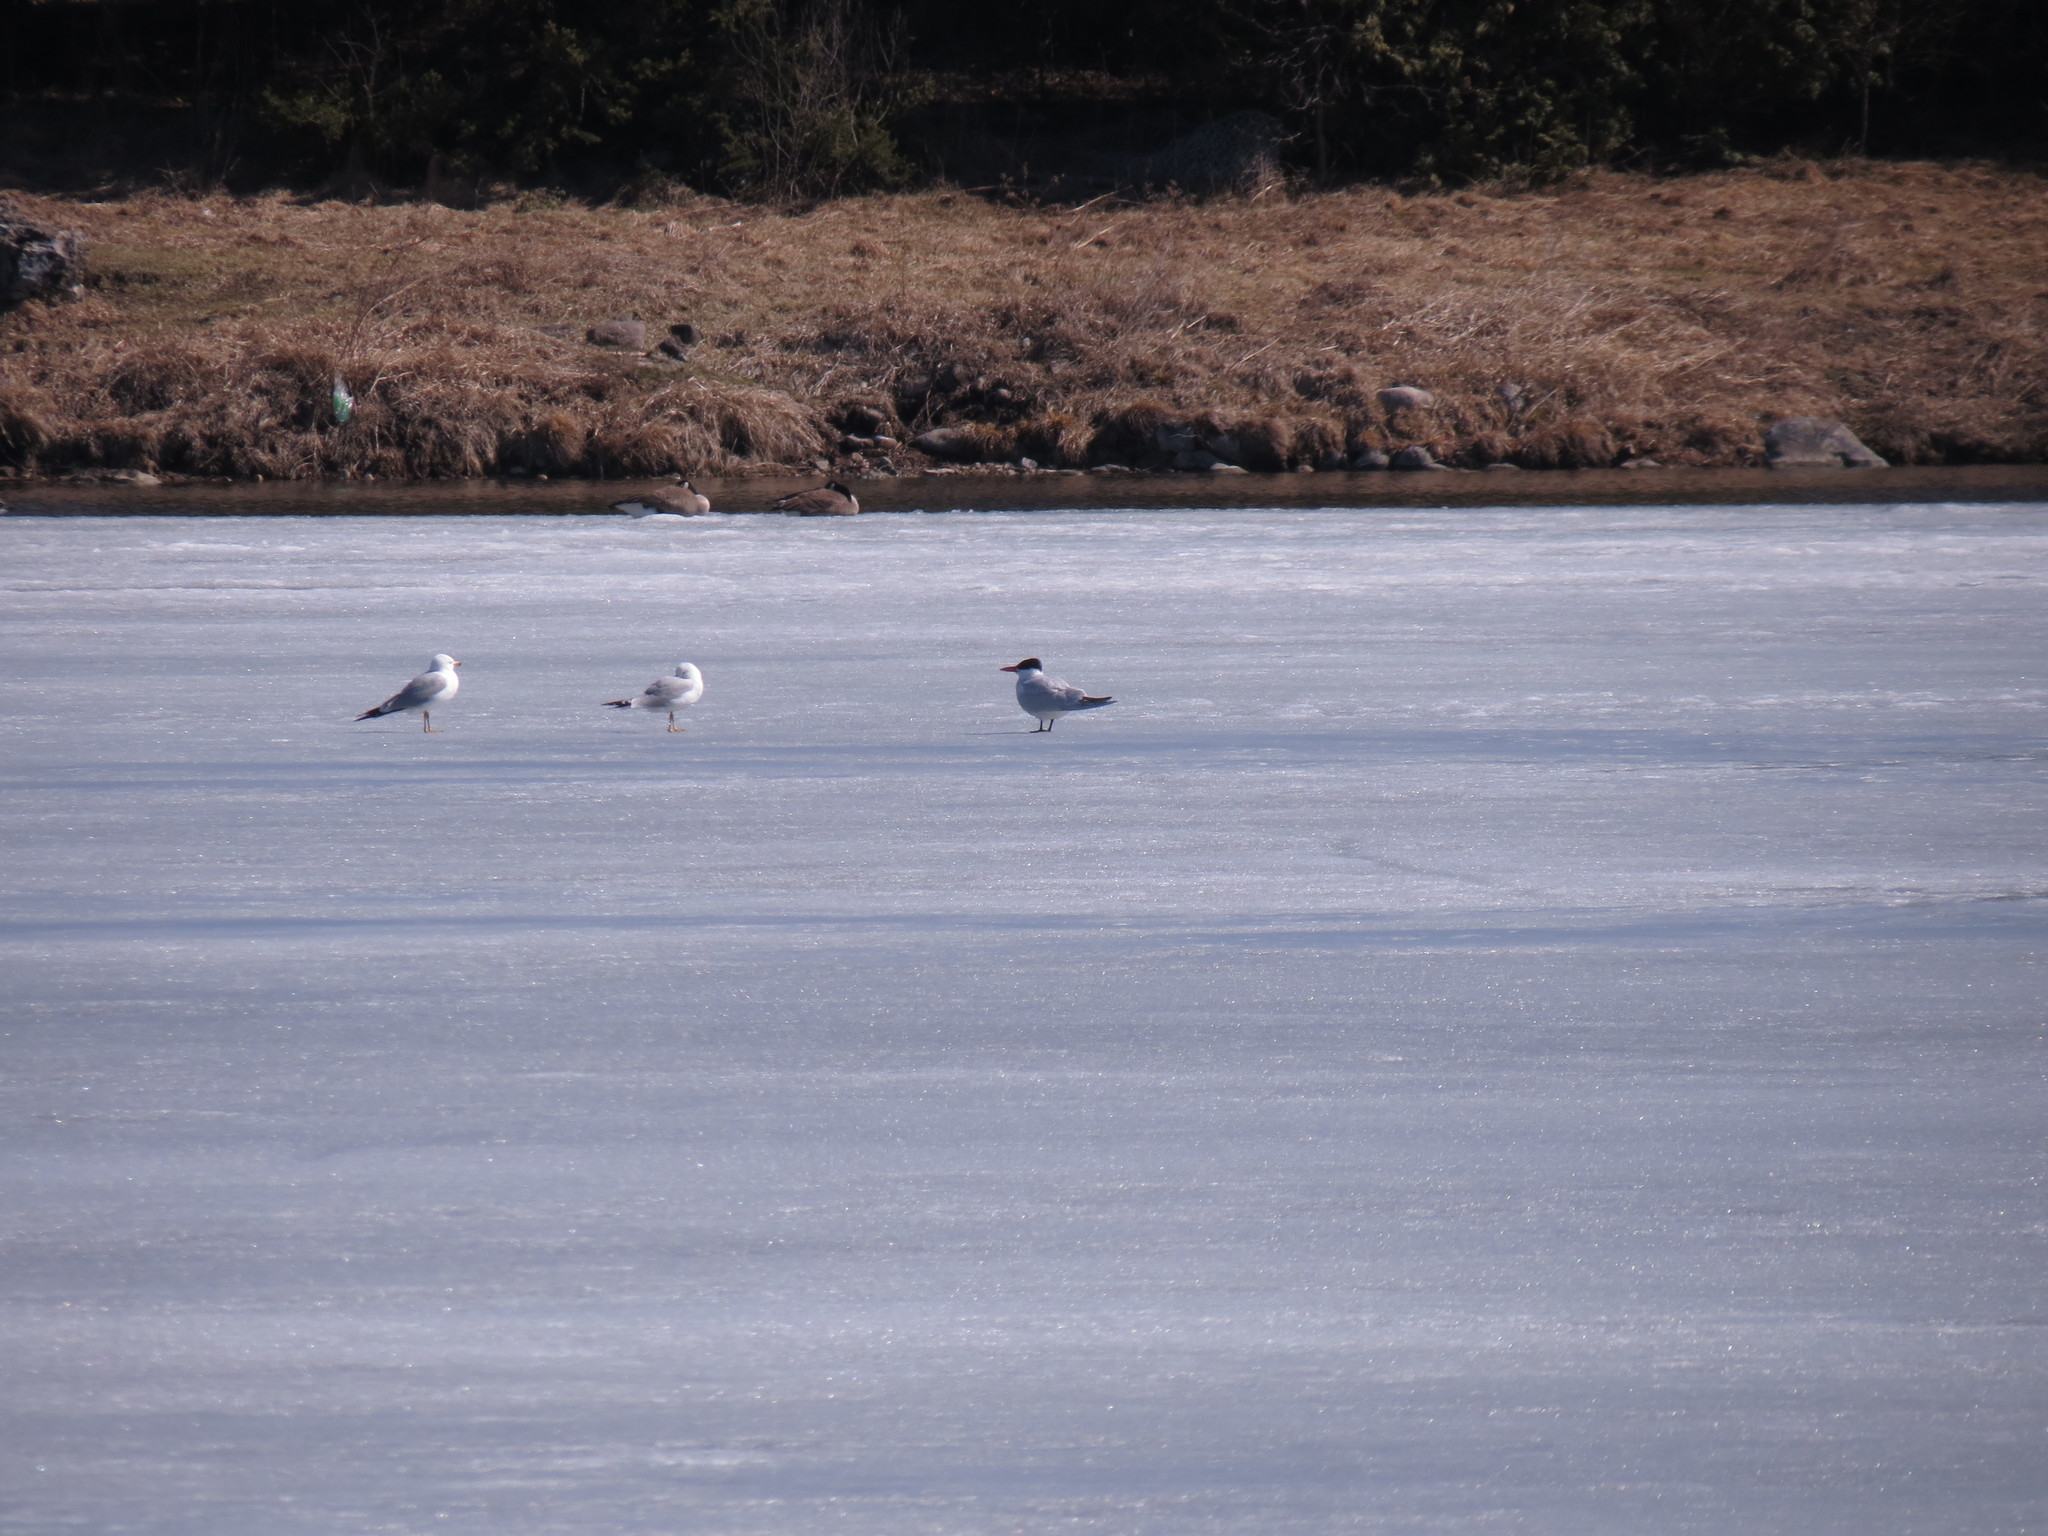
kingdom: Animalia
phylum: Chordata
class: Aves
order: Charadriiformes
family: Laridae
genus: Hydroprogne
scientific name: Hydroprogne caspia
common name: Caspian tern
